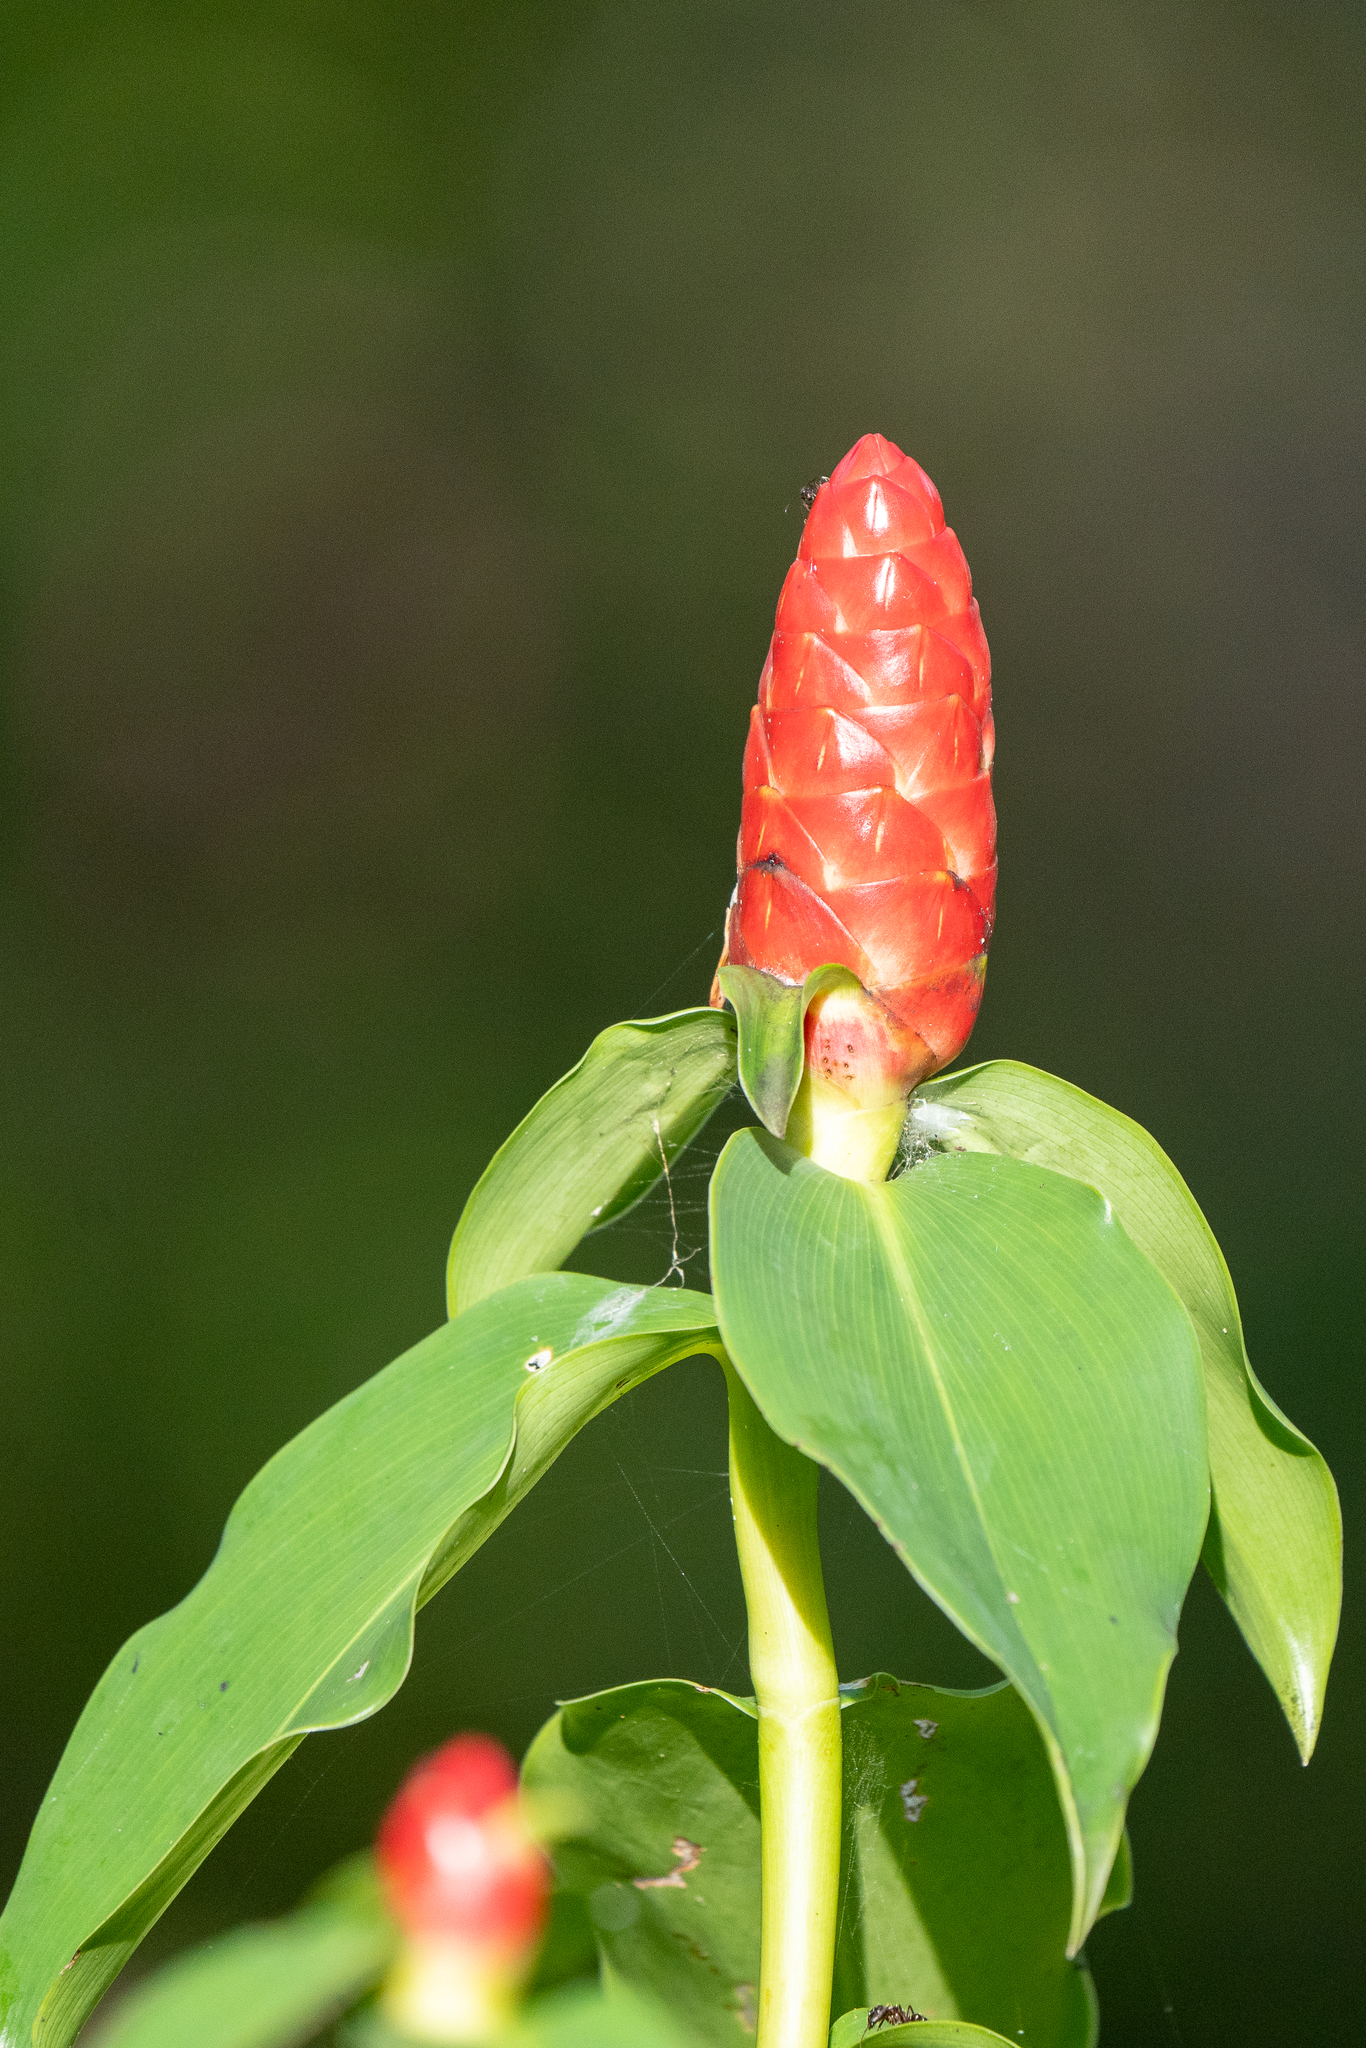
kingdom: Plantae
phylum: Tracheophyta
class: Liliopsida
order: Zingiberales
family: Costaceae
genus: Costus
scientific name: Costus woodsonii
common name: Scarlet spiral-ginger
